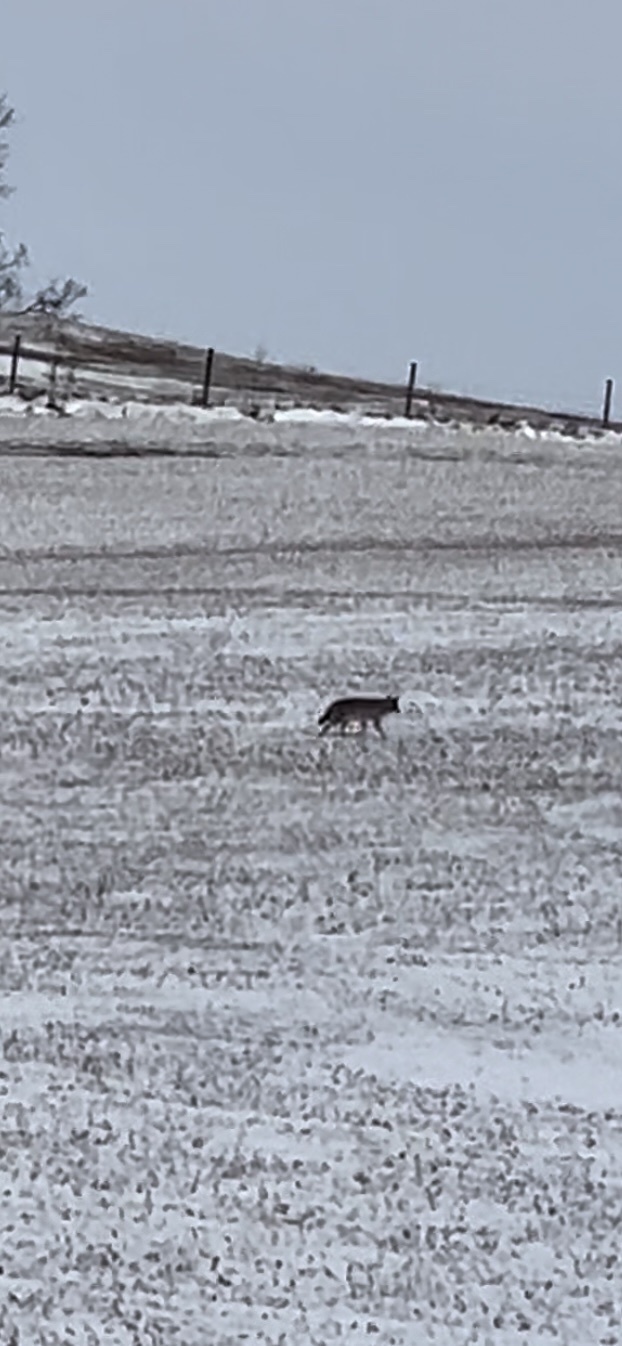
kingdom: Animalia
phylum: Chordata
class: Mammalia
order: Carnivora
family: Canidae
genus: Canis
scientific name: Canis latrans
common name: Coyote
